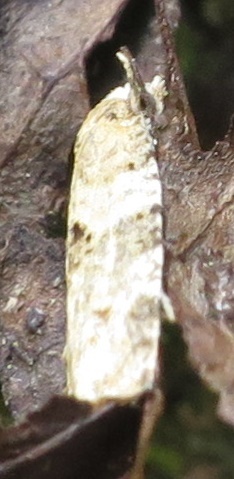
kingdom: Animalia
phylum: Arthropoda
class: Insecta
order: Lepidoptera
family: Tortricidae
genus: Dipterina
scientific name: Dipterina imbriferana
